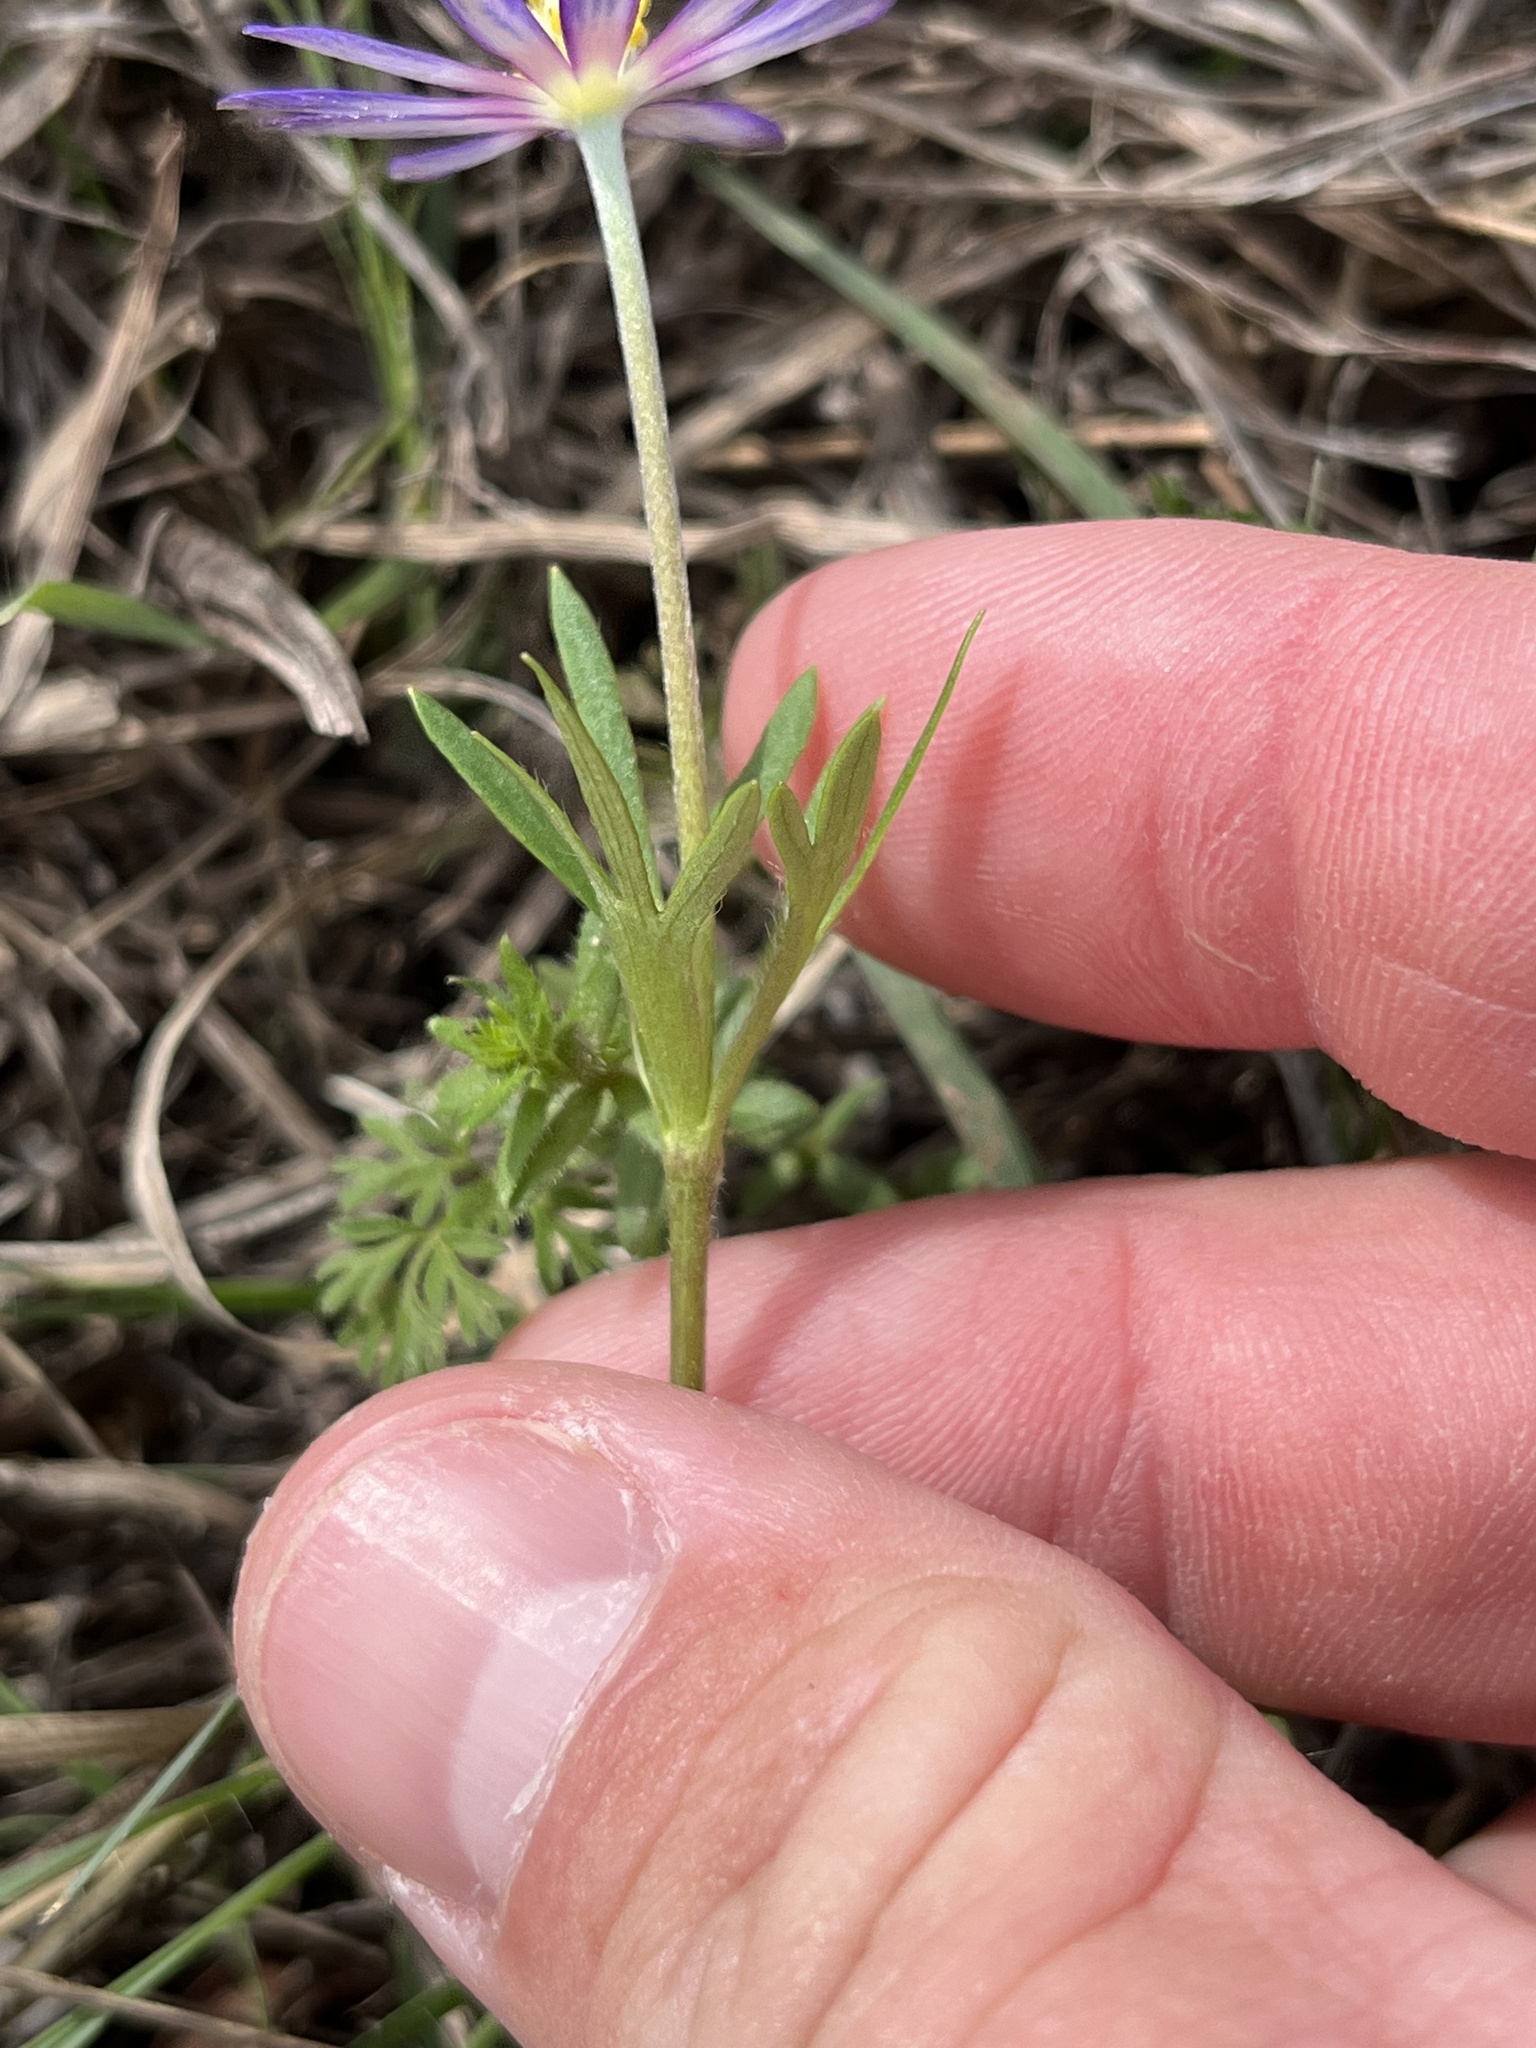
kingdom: Plantae
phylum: Tracheophyta
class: Magnoliopsida
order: Ranunculales
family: Ranunculaceae
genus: Anemone
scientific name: Anemone berlandieri
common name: Ten-petal anemone
